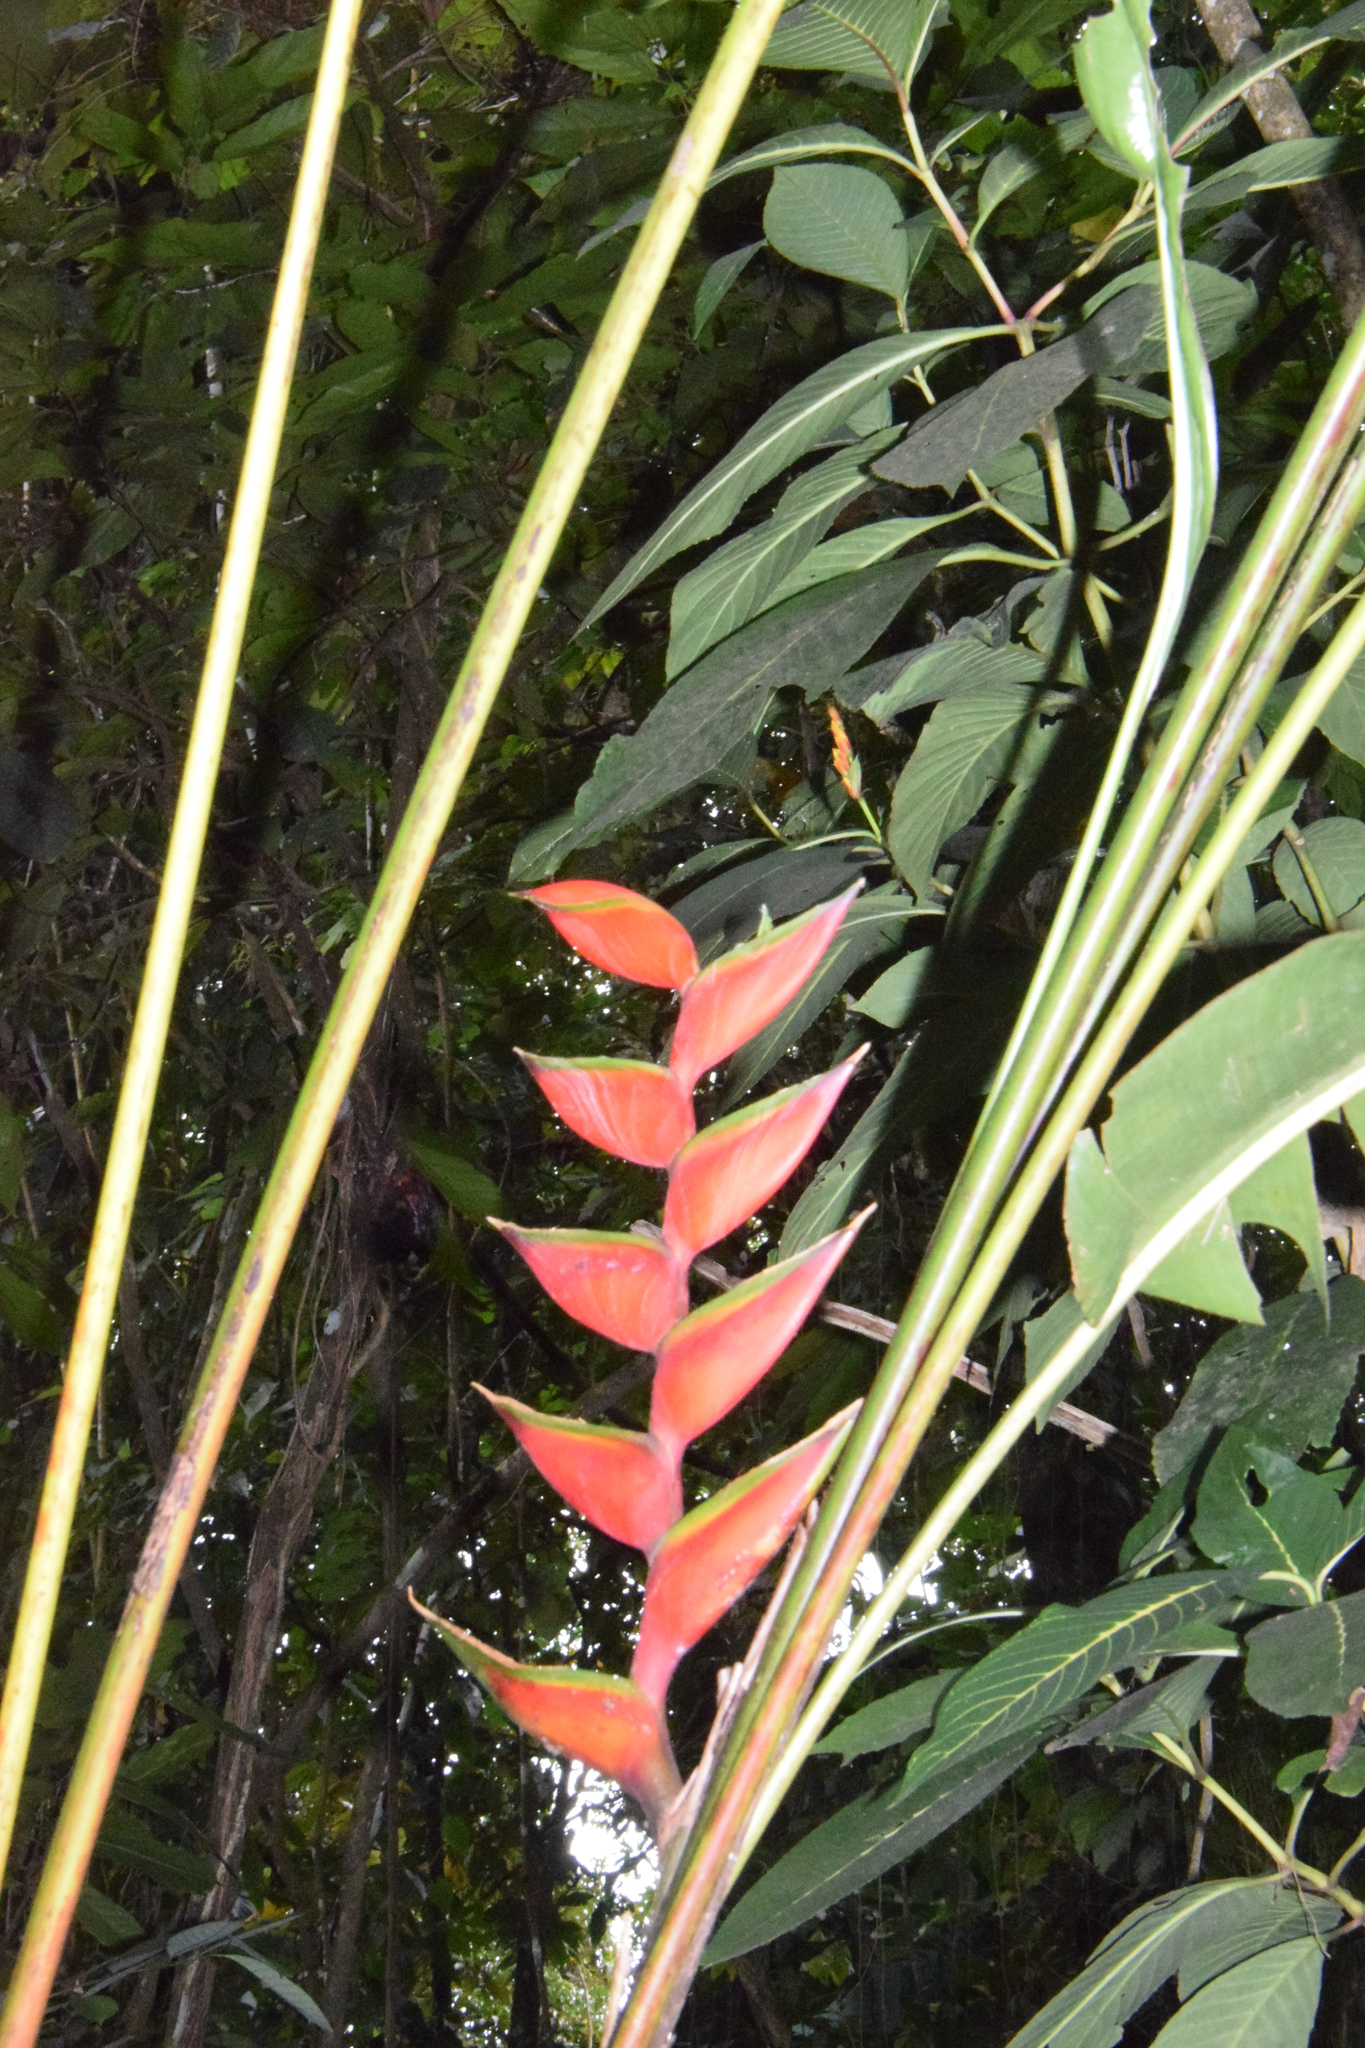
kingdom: Plantae
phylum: Tracheophyta
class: Liliopsida
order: Zingiberales
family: Heliconiaceae
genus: Heliconia
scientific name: Heliconia bihai
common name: Macaw flower
